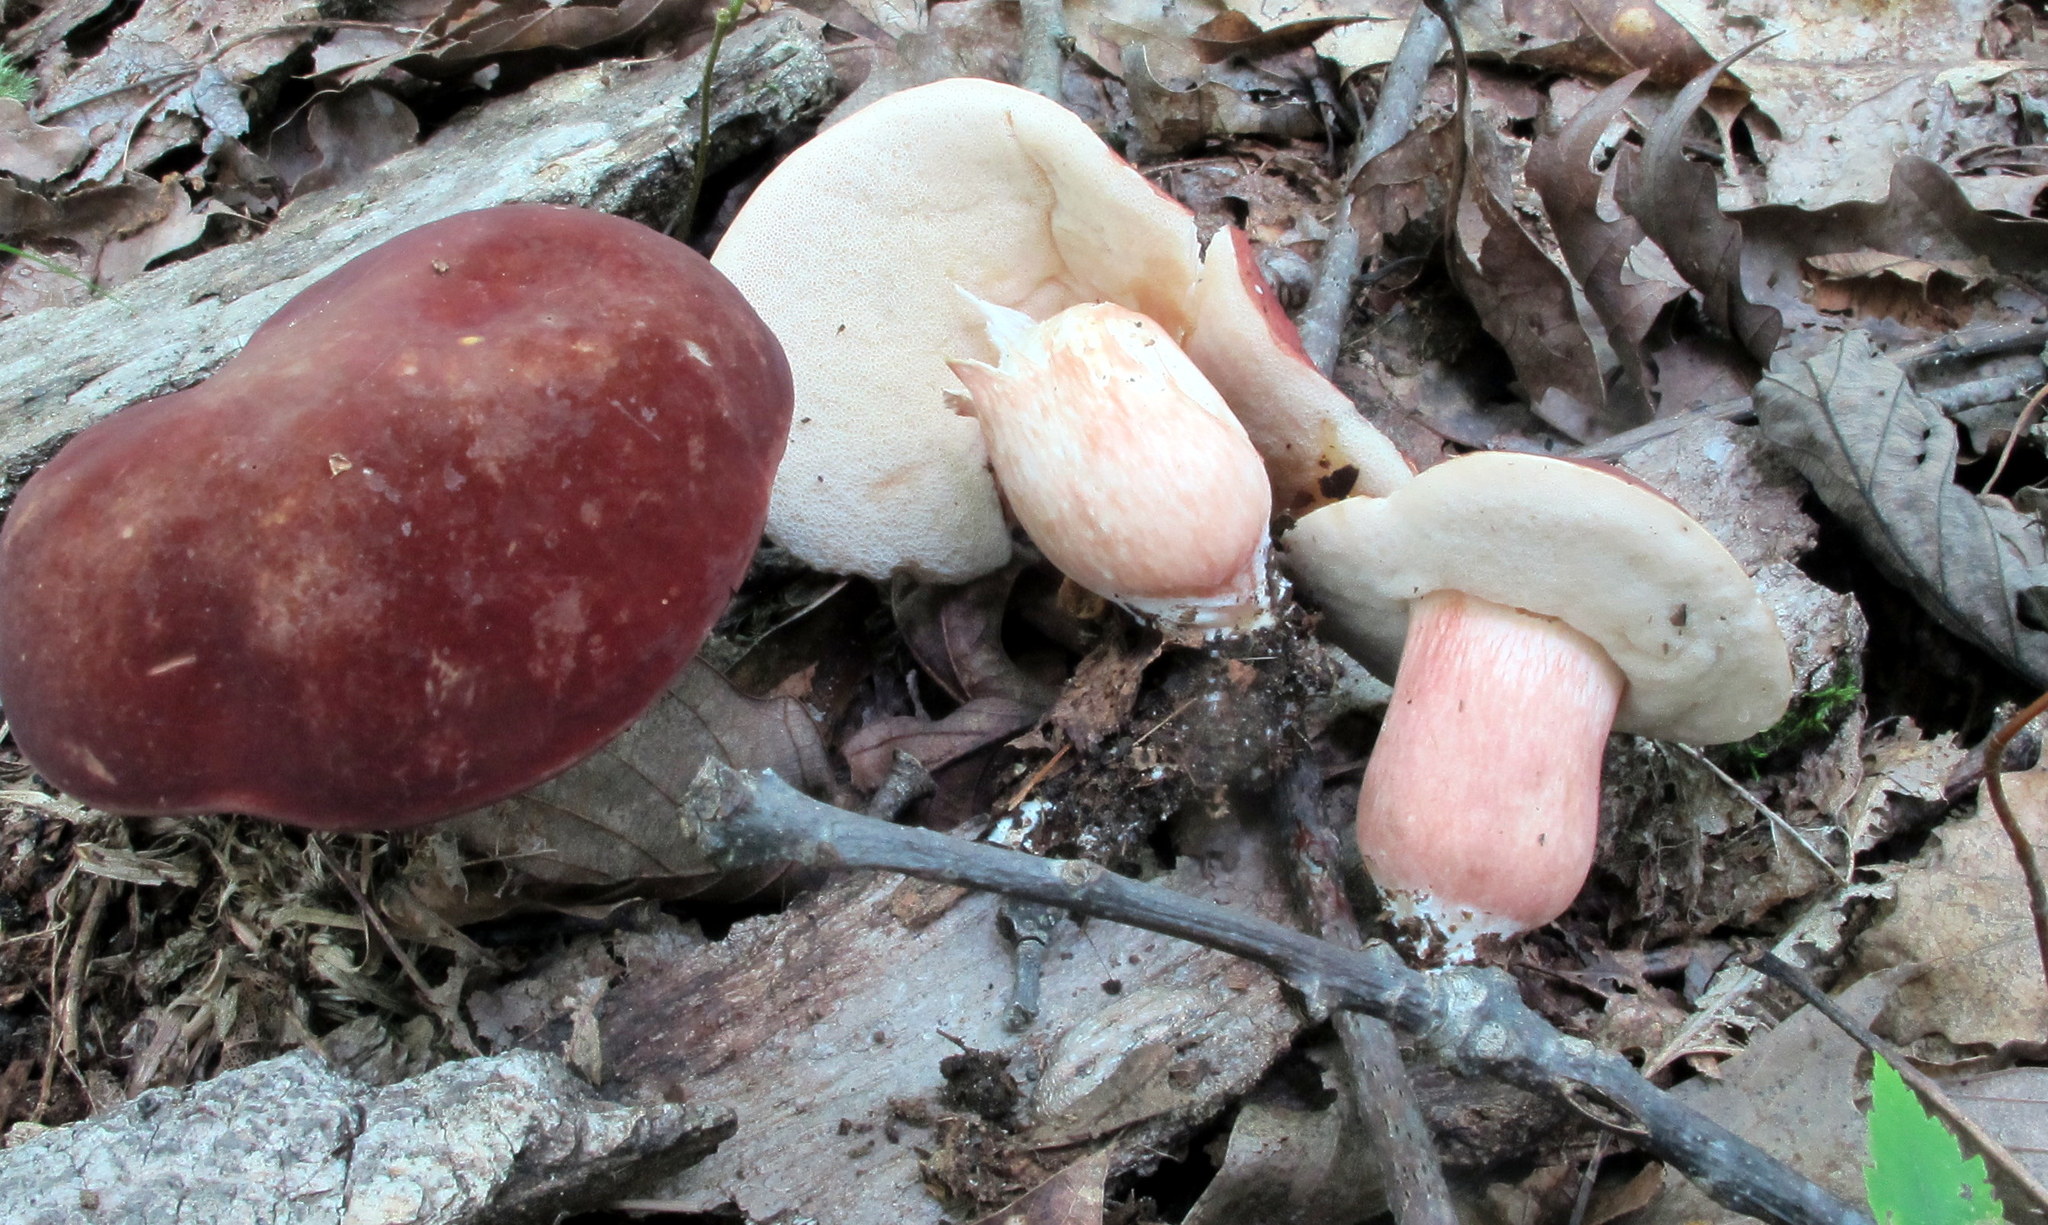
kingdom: Fungi
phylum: Basidiomycota
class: Agaricomycetes
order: Boletales
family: Boletaceae
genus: Xanthoconium
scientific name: Xanthoconium purpureum
